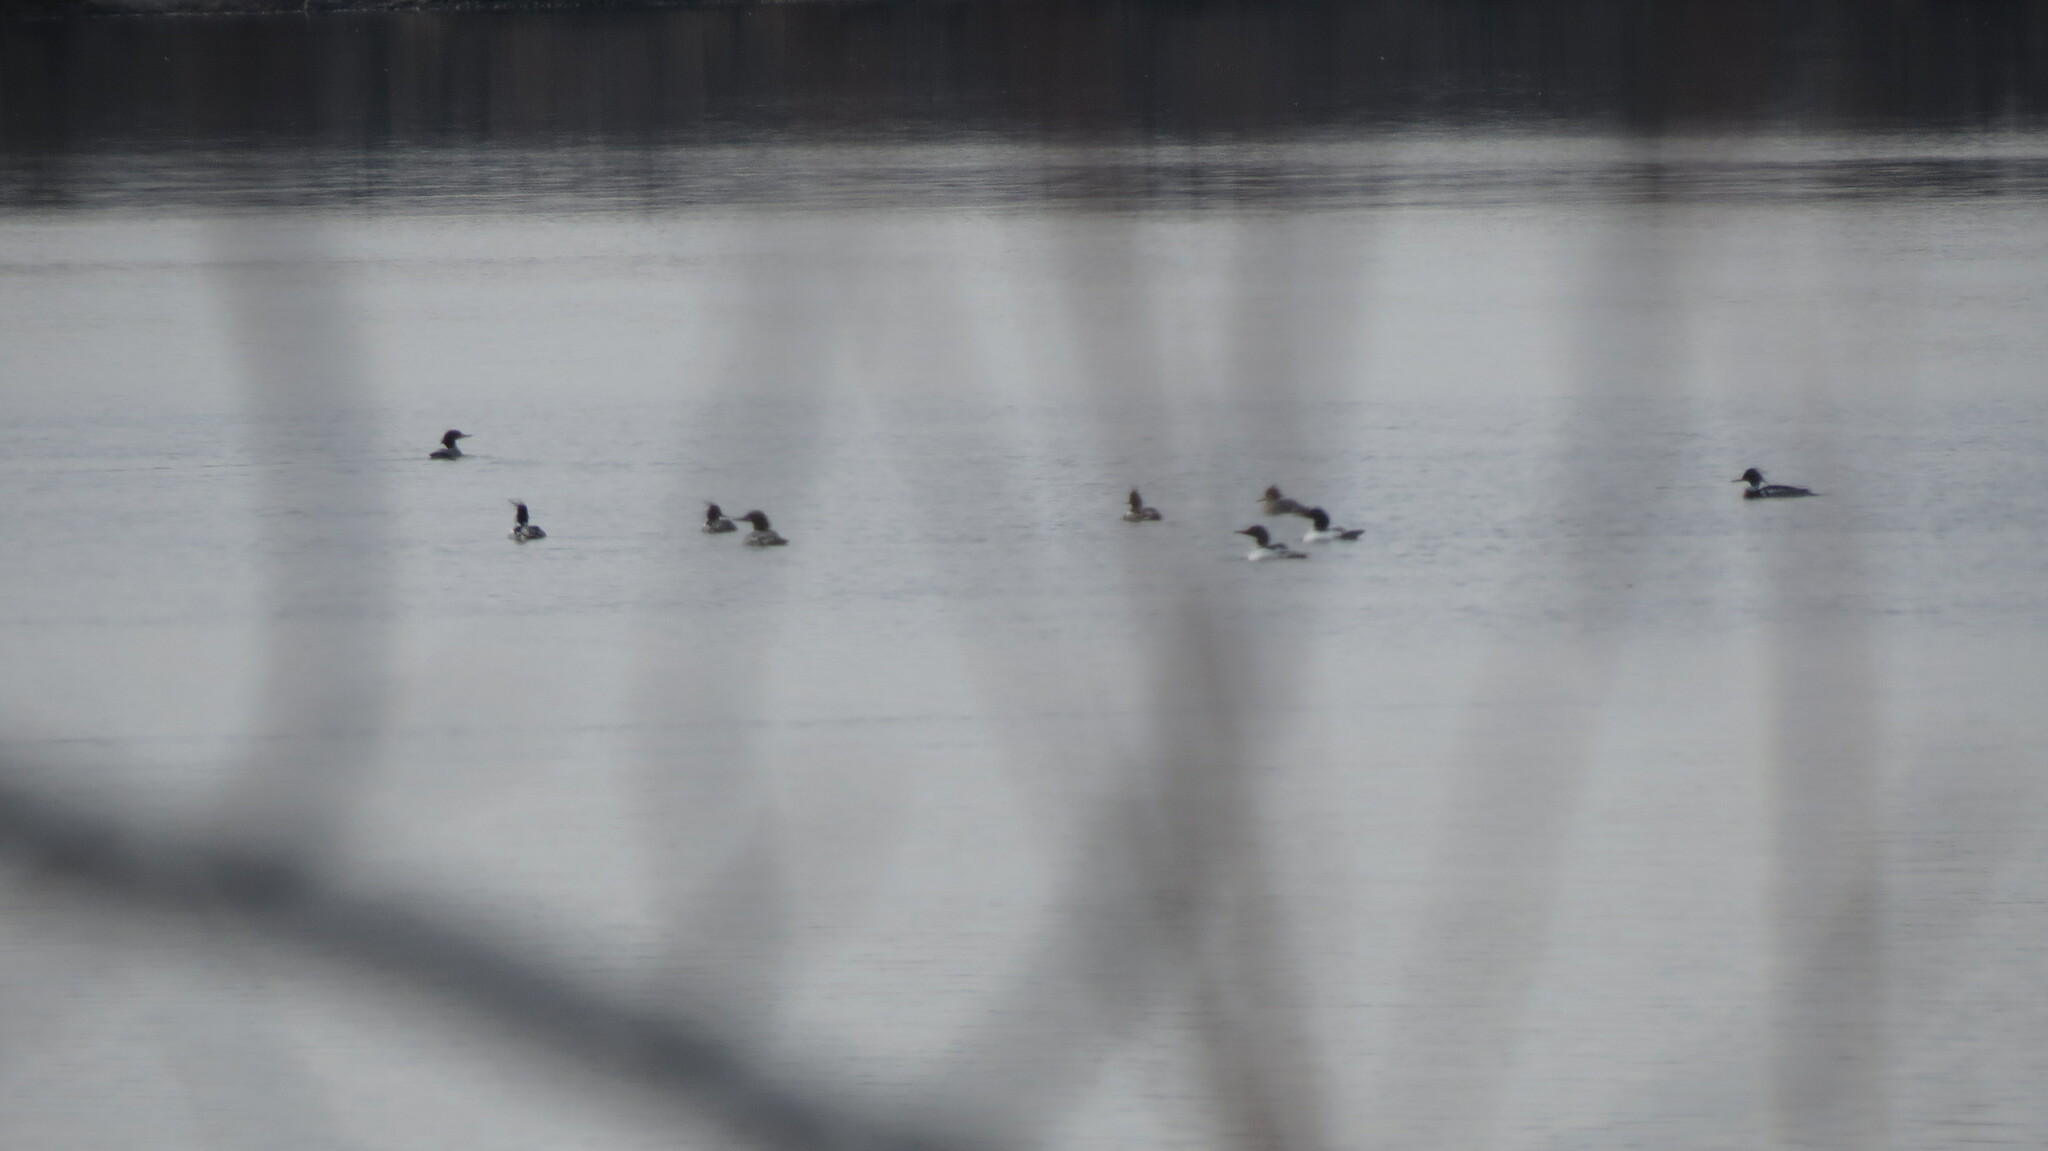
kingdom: Animalia
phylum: Chordata
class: Aves
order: Anseriformes
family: Anatidae
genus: Mergus
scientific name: Mergus merganser
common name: Common merganser
